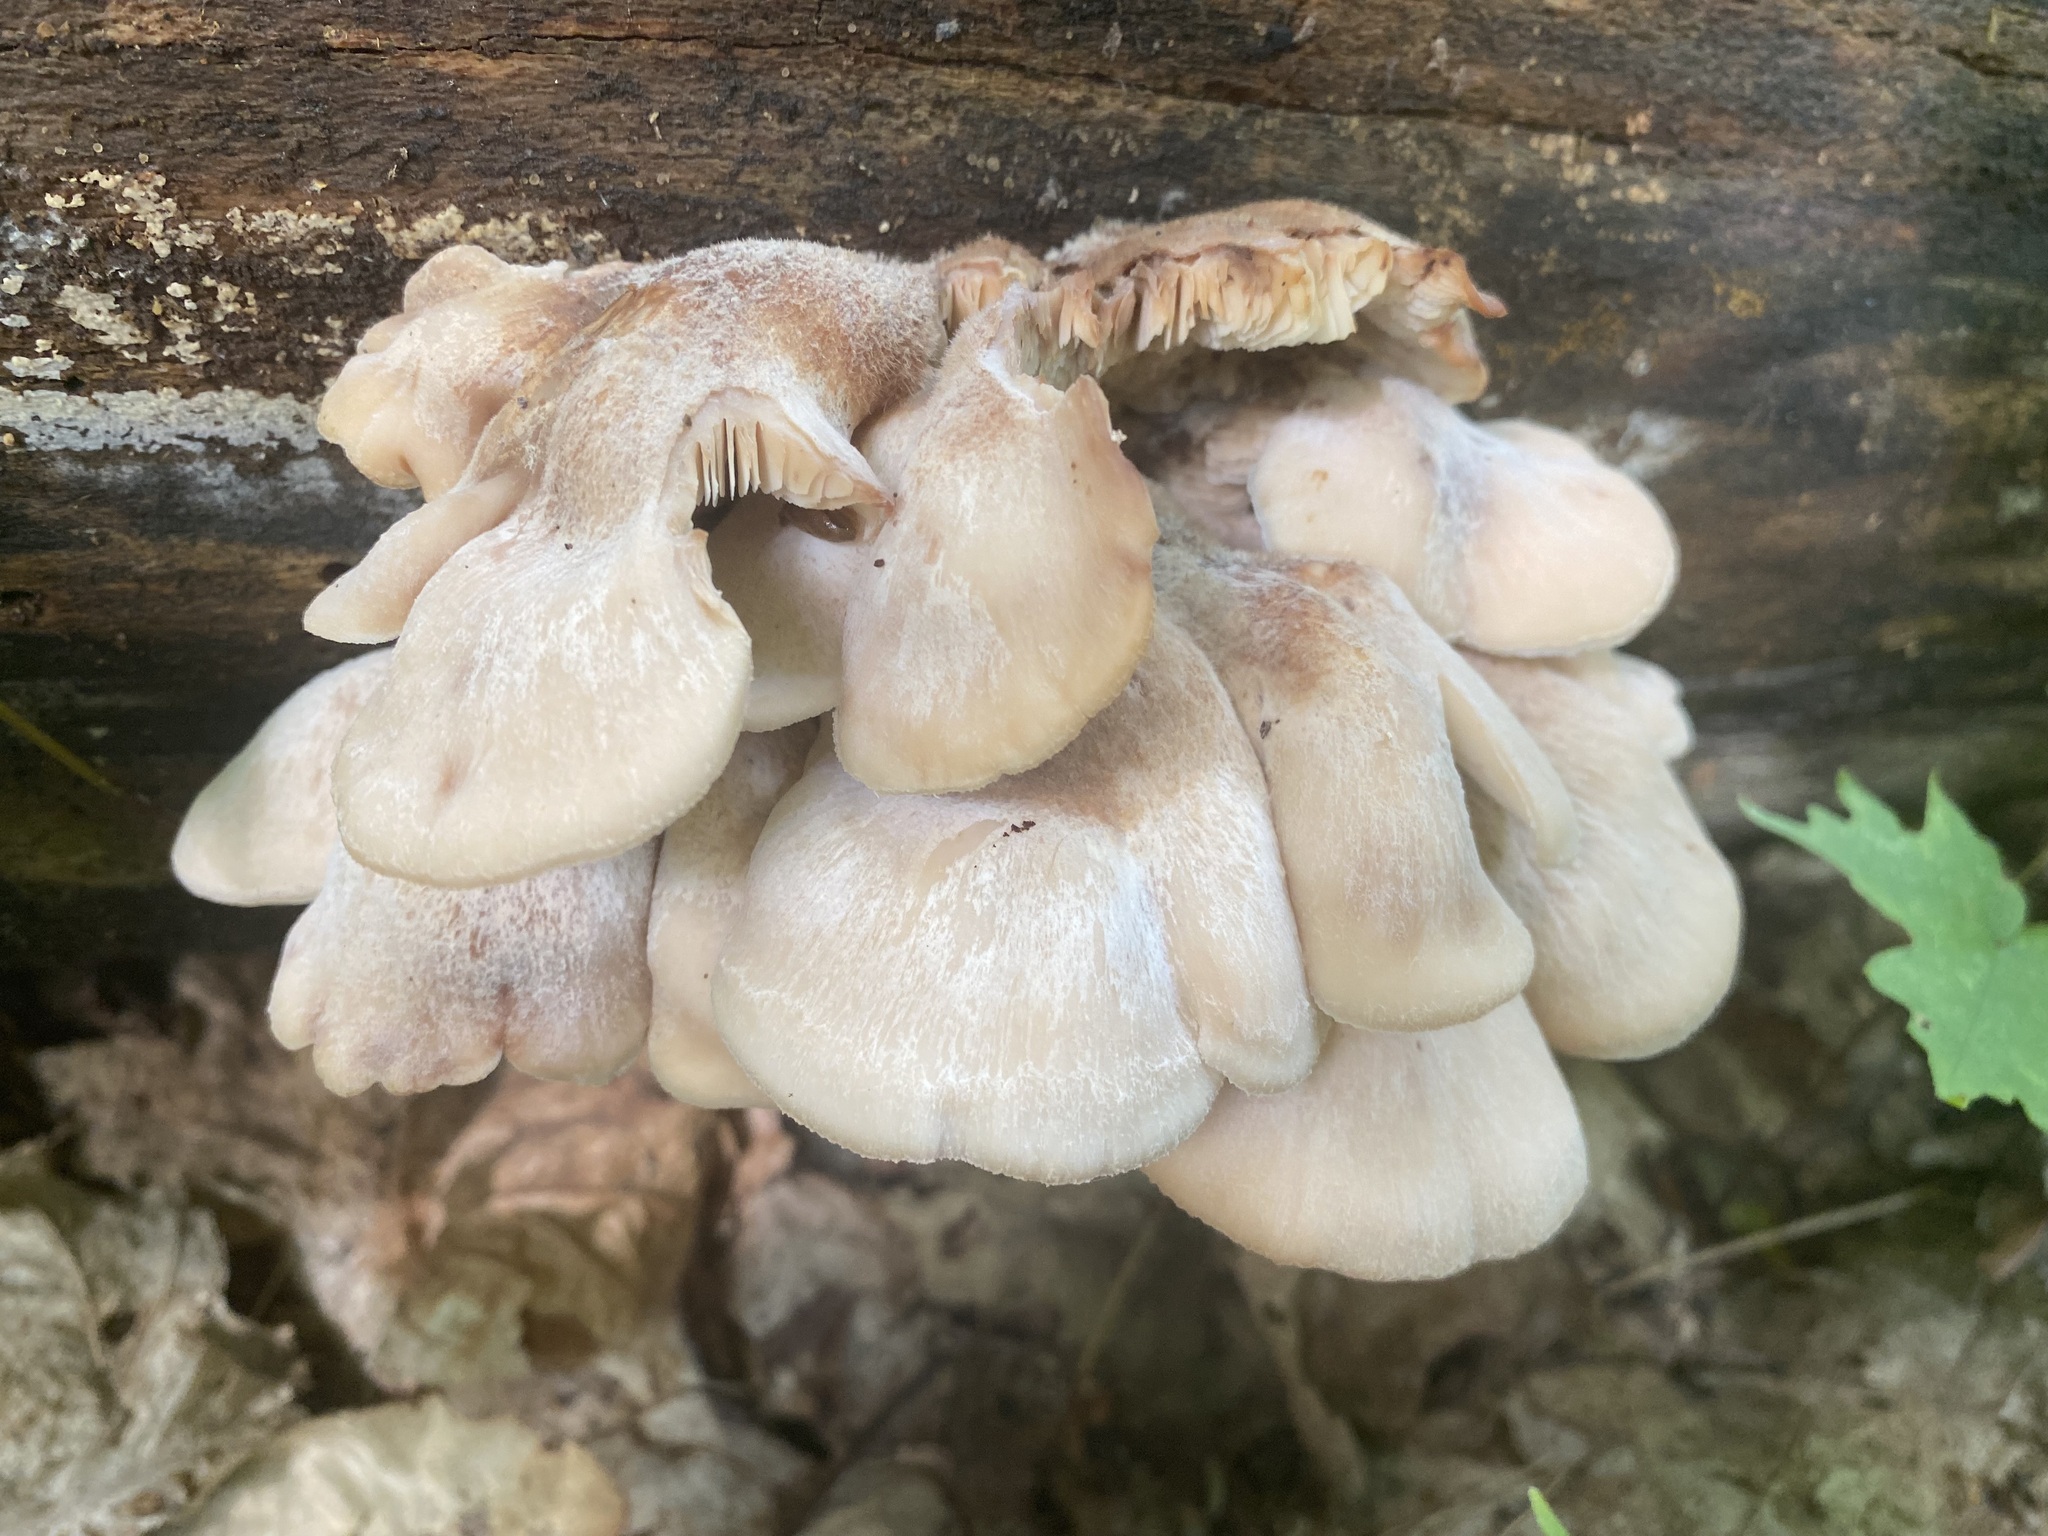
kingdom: Fungi
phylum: Basidiomycota
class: Agaricomycetes
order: Russulales
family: Auriscalpiaceae
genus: Lentinellus
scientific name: Lentinellus ursinus
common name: Bear lentinus
